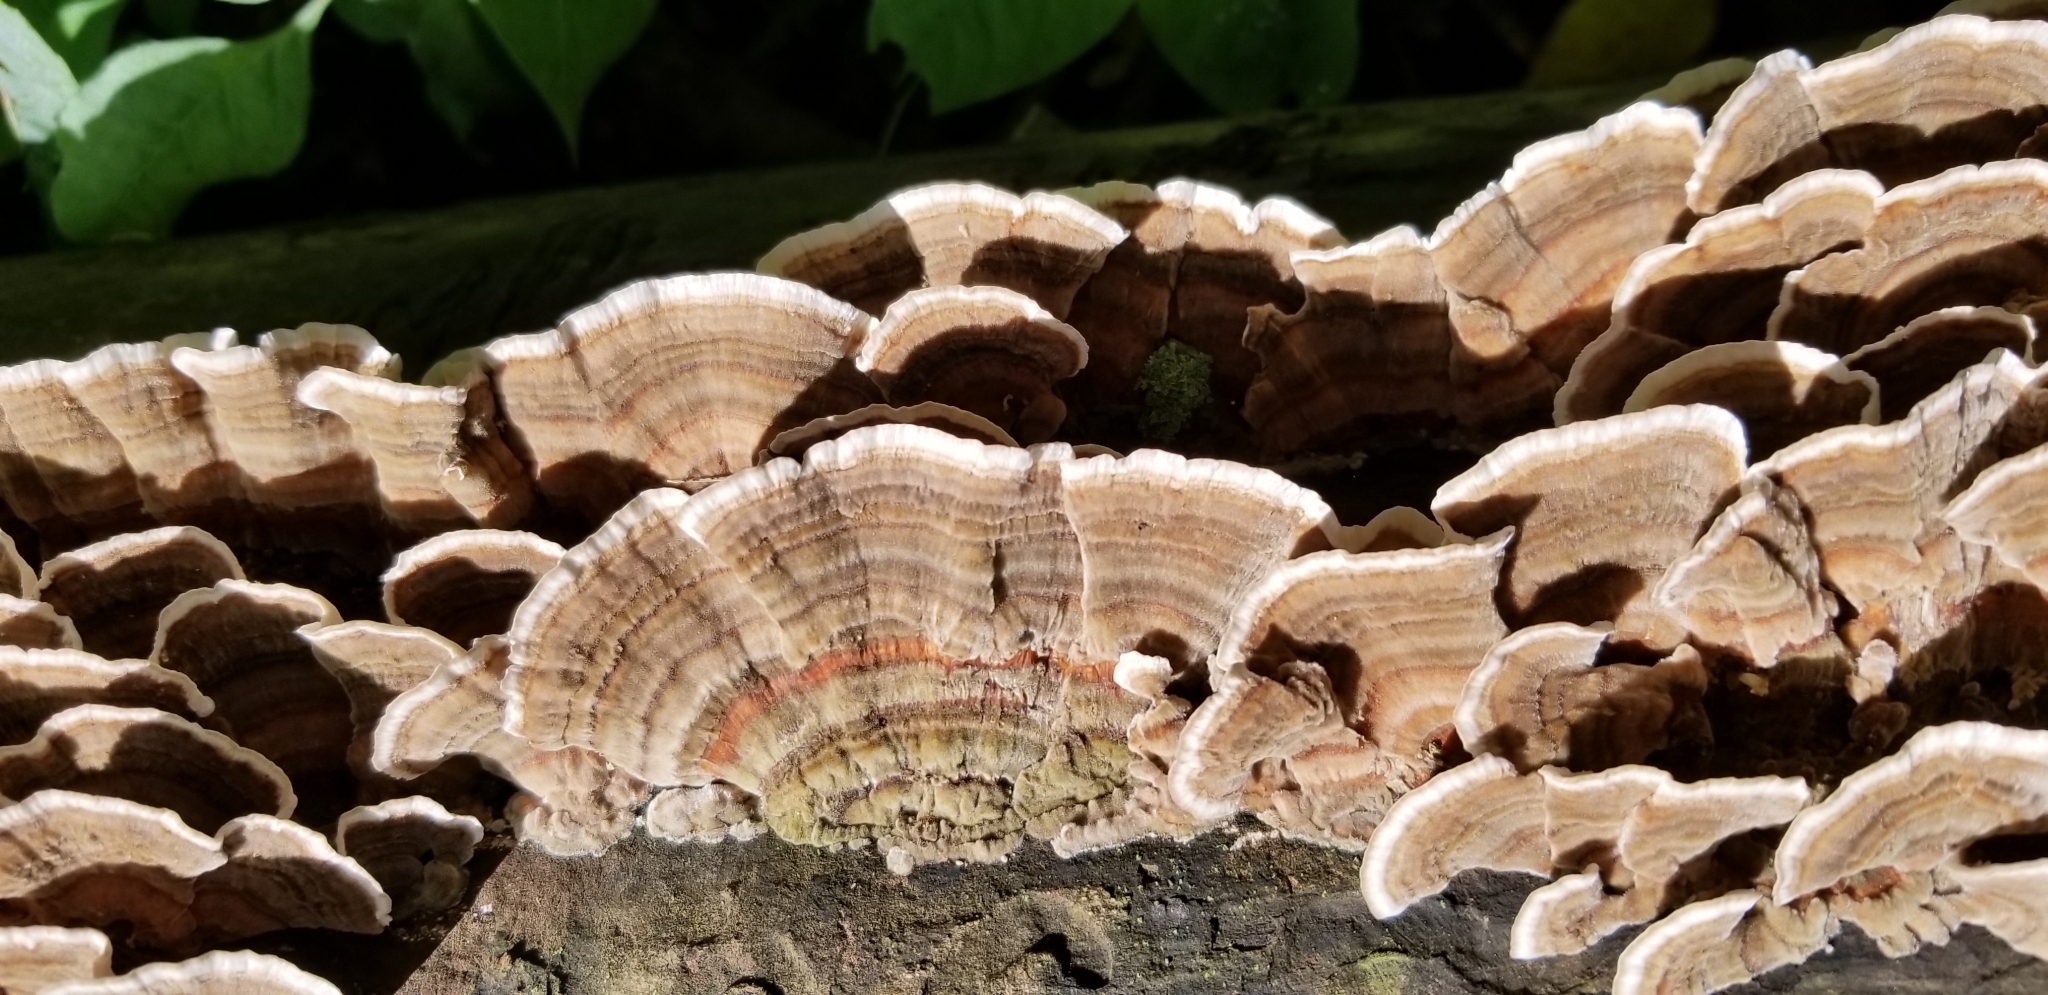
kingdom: Fungi
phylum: Basidiomycota
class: Agaricomycetes
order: Polyporales
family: Polyporaceae
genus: Trametes
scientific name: Trametes versicolor
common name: Turkeytail
